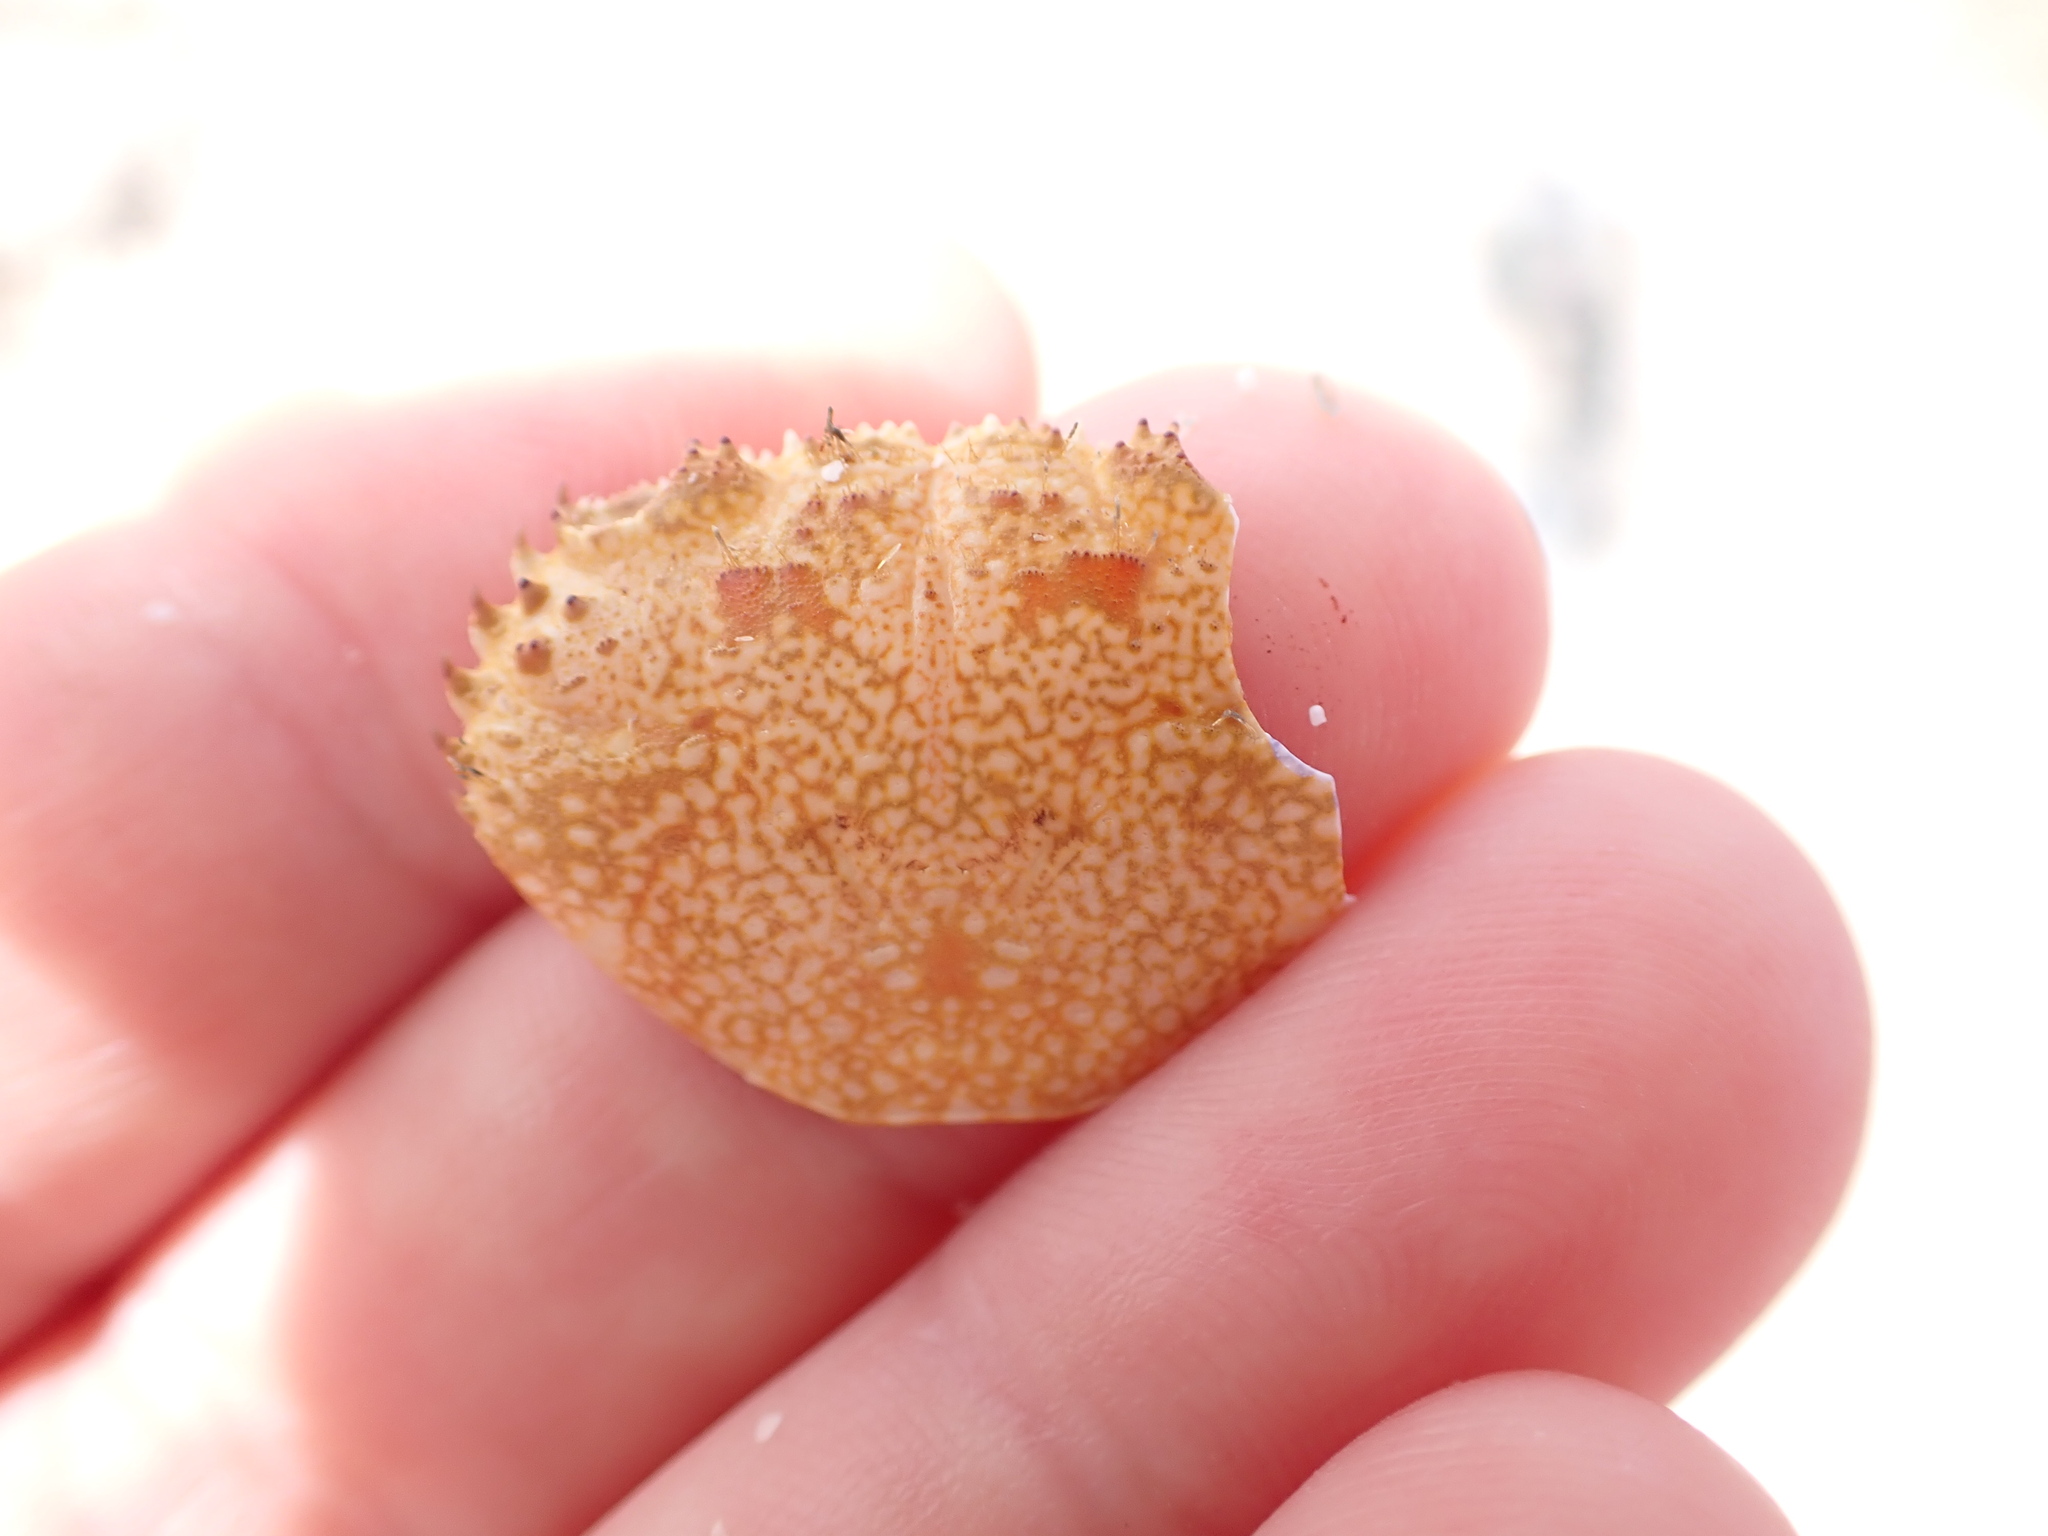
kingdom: Animalia
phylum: Arthropoda
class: Malacostraca
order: Decapoda
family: Eriphiidae
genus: Eriphia
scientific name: Eriphia verrucosa
